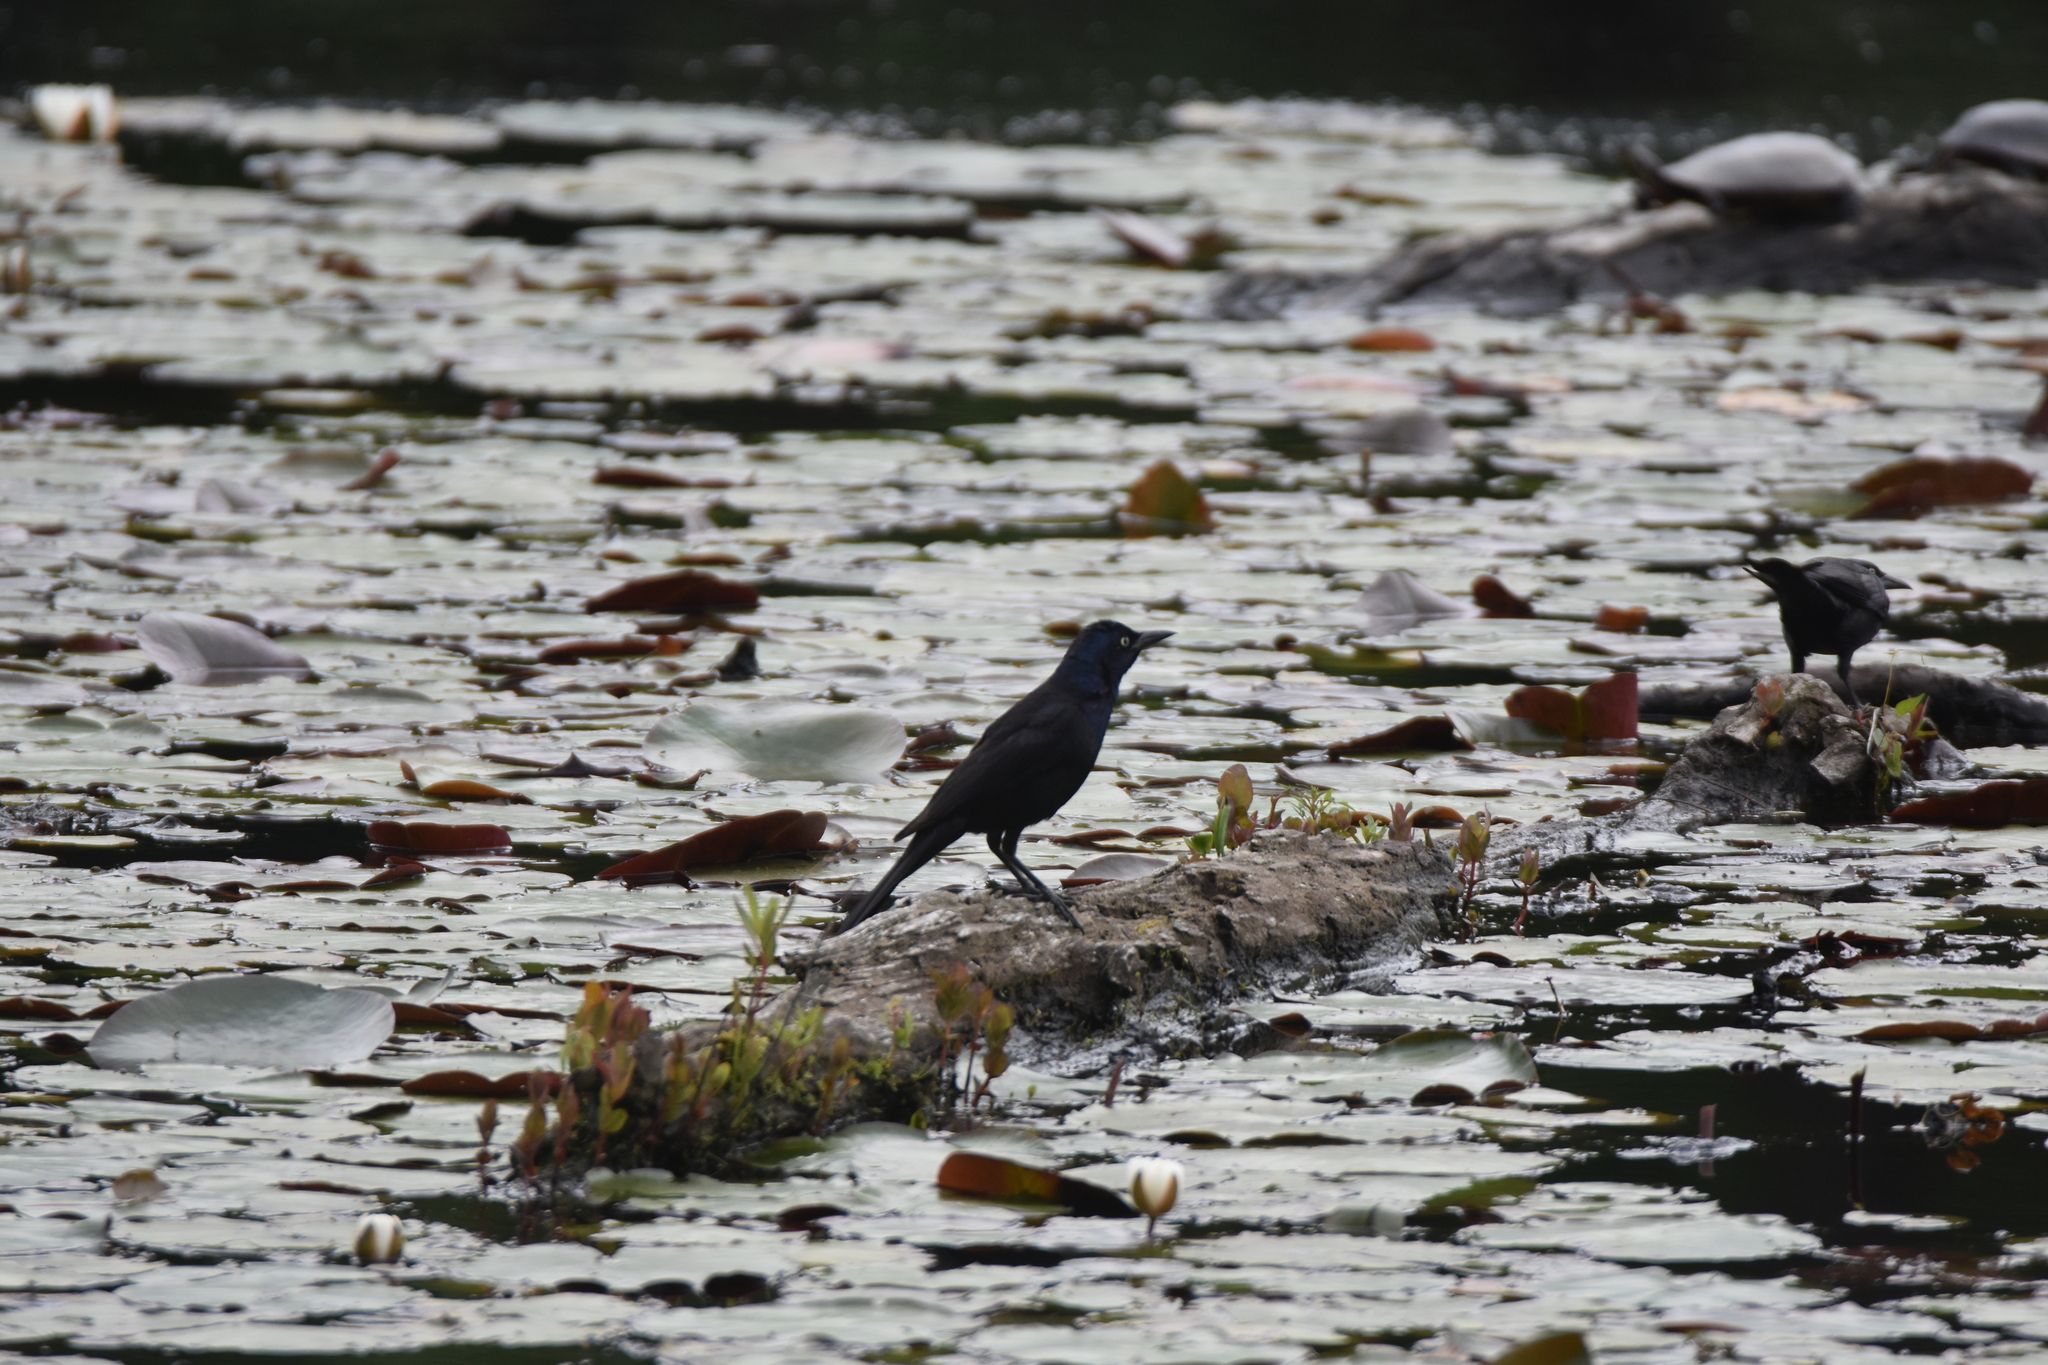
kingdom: Animalia
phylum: Chordata
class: Aves
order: Passeriformes
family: Icteridae
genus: Quiscalus
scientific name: Quiscalus quiscula
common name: Common grackle
